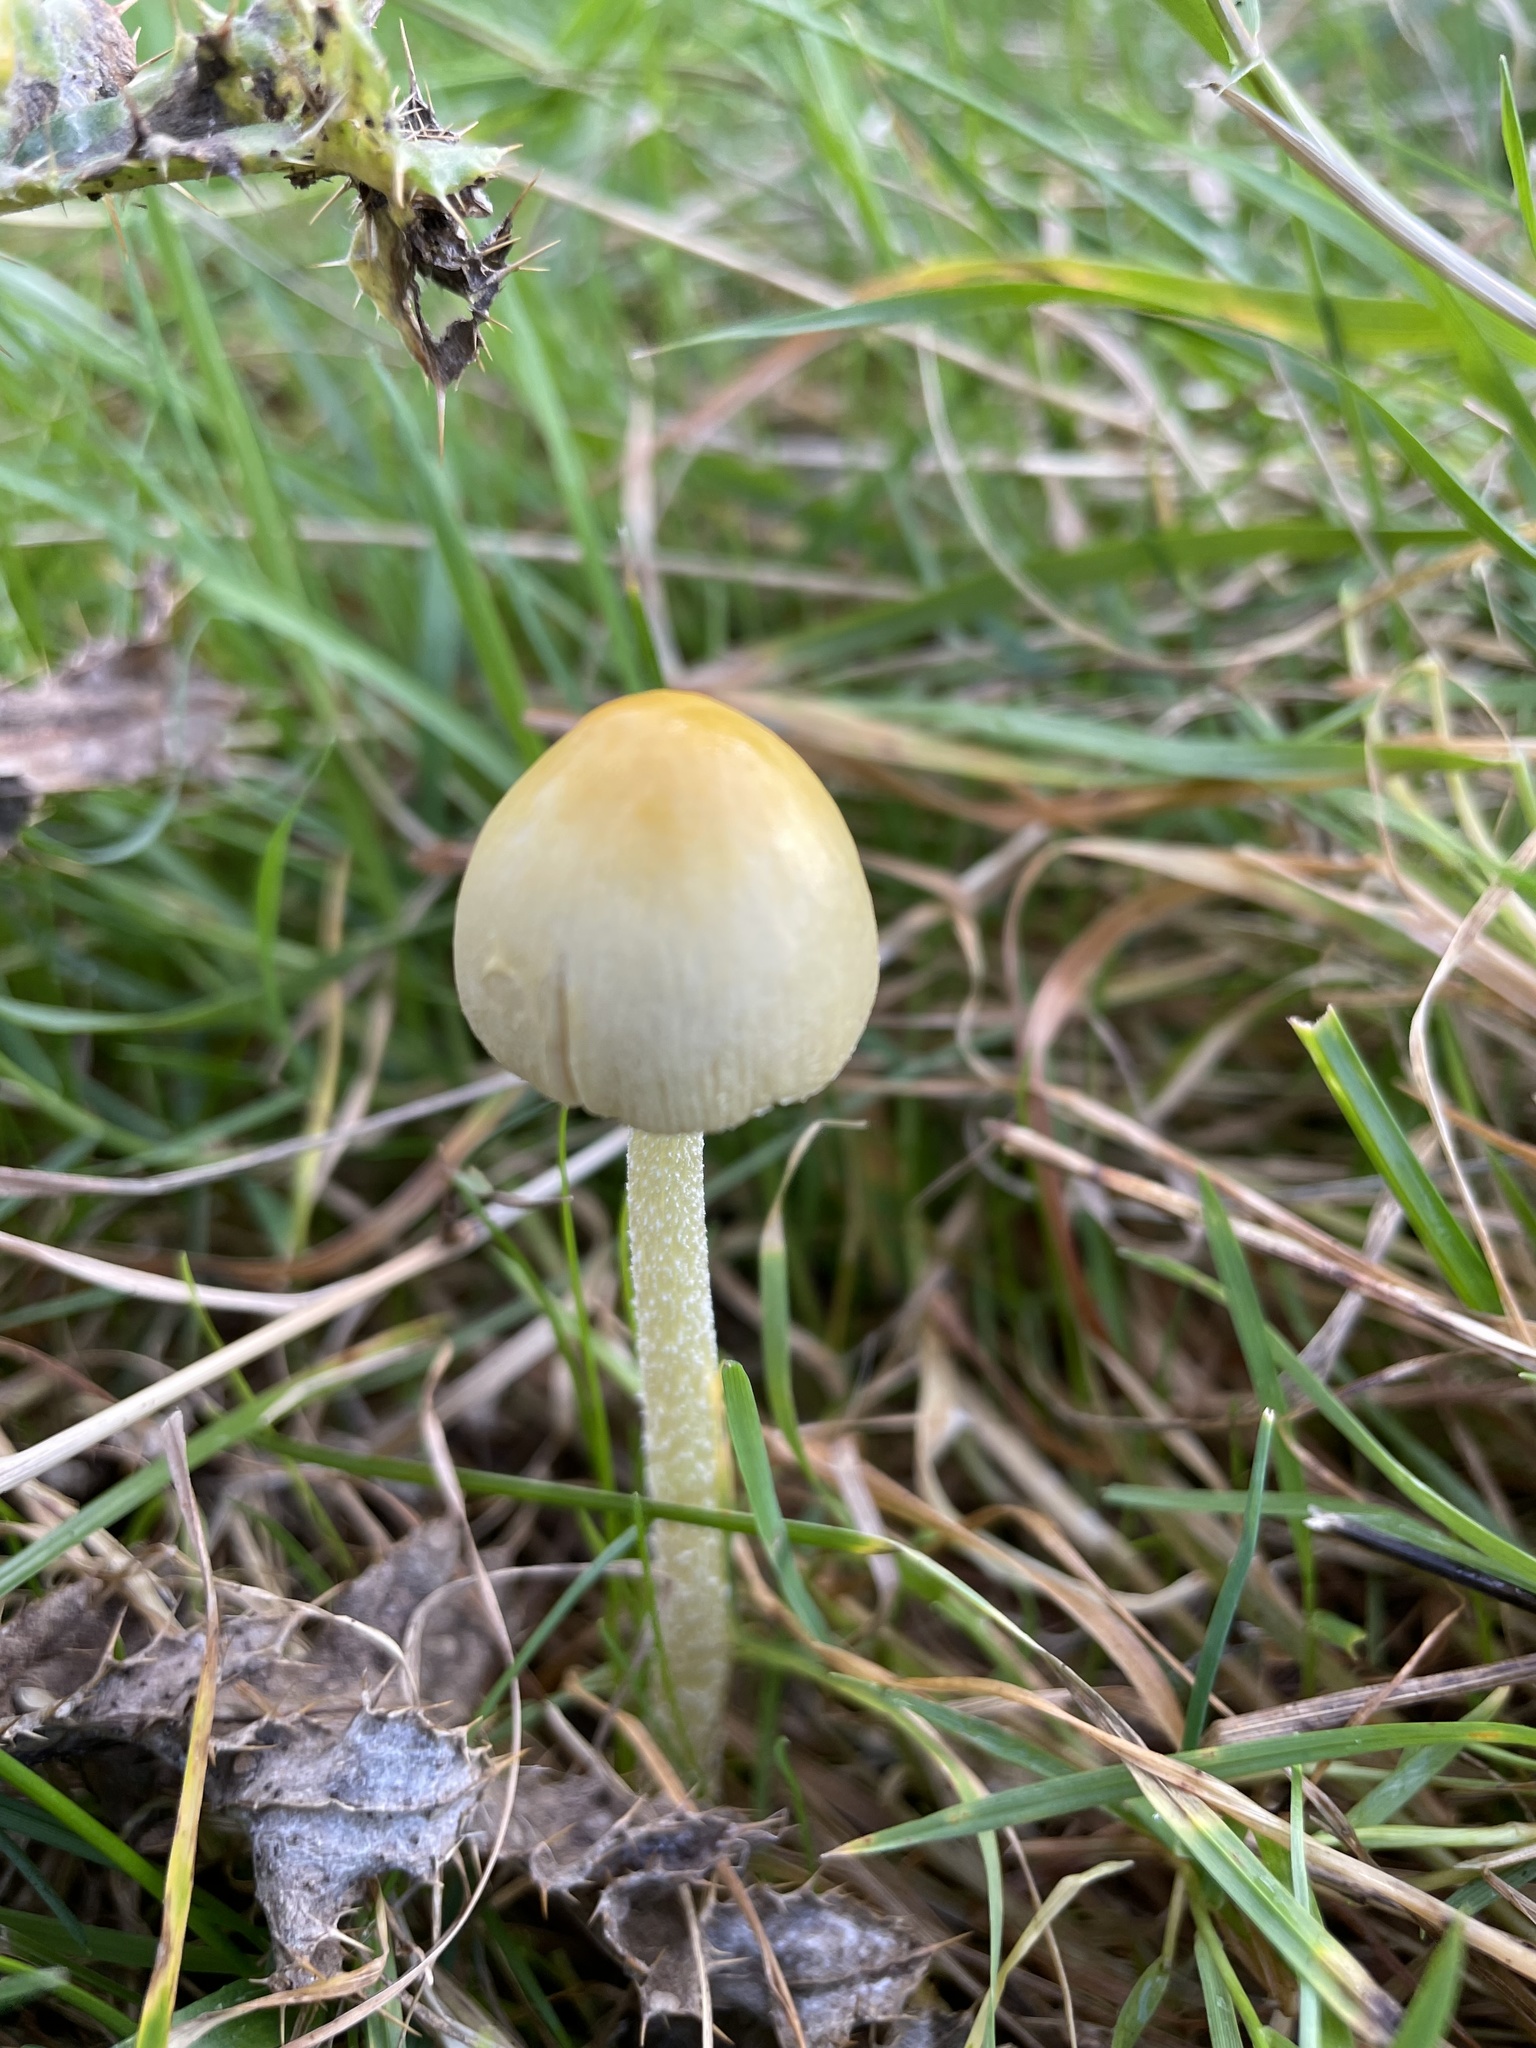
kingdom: Fungi
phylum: Basidiomycota
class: Agaricomycetes
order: Agaricales
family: Bolbitiaceae
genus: Bolbitius
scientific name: Bolbitius titubans
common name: Yellow fieldcap
